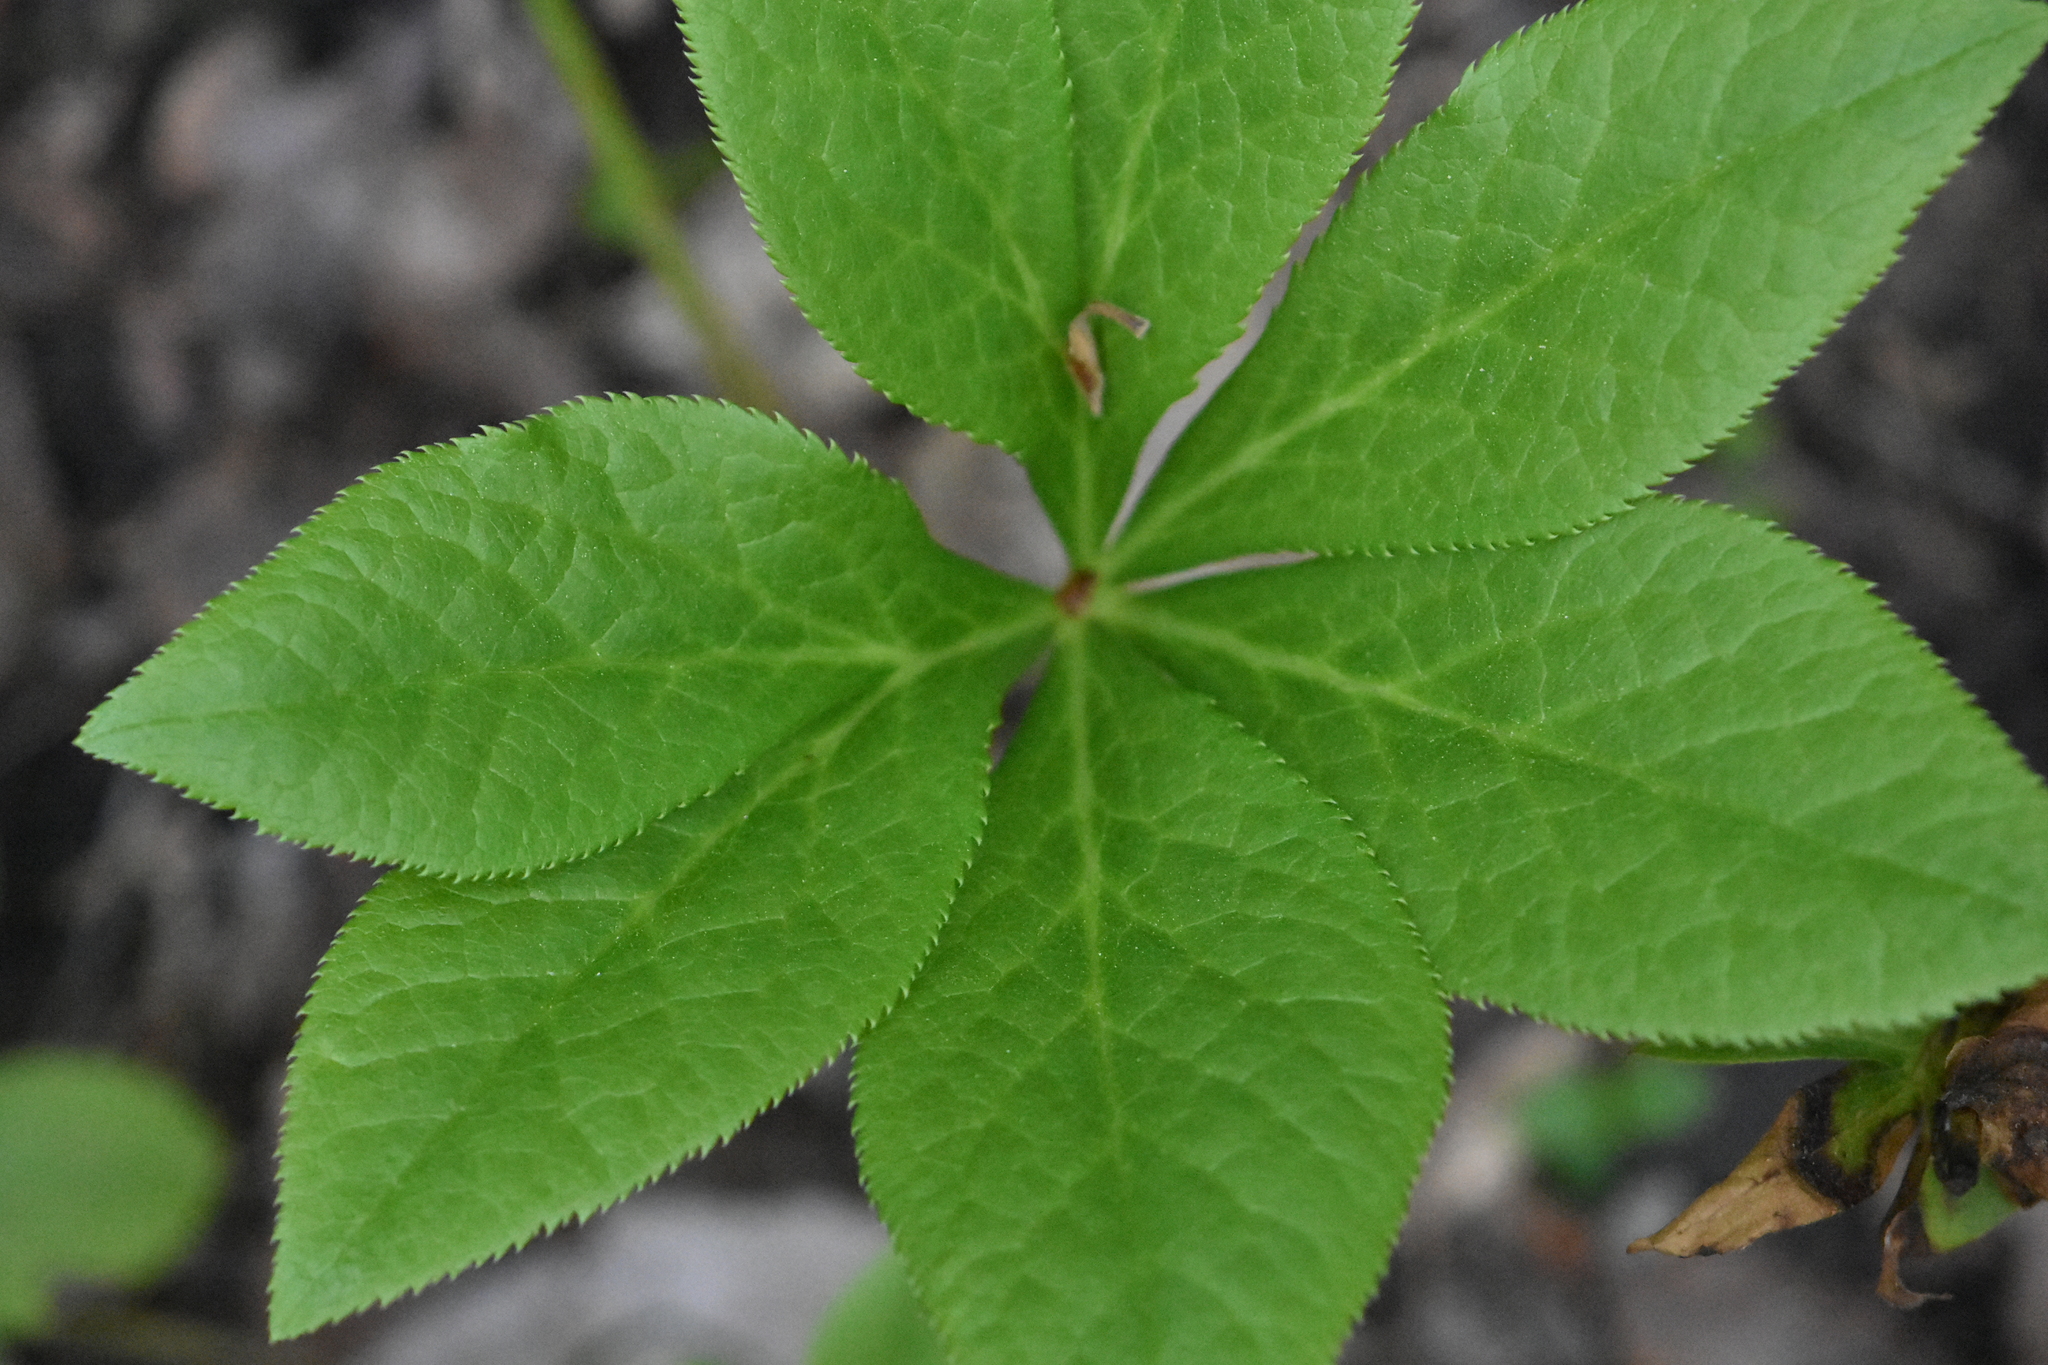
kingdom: Plantae
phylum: Tracheophyta
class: Magnoliopsida
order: Ranunculales
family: Ranunculaceae
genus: Helleborus
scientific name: Helleborus orientalis
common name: Lenten-rose
